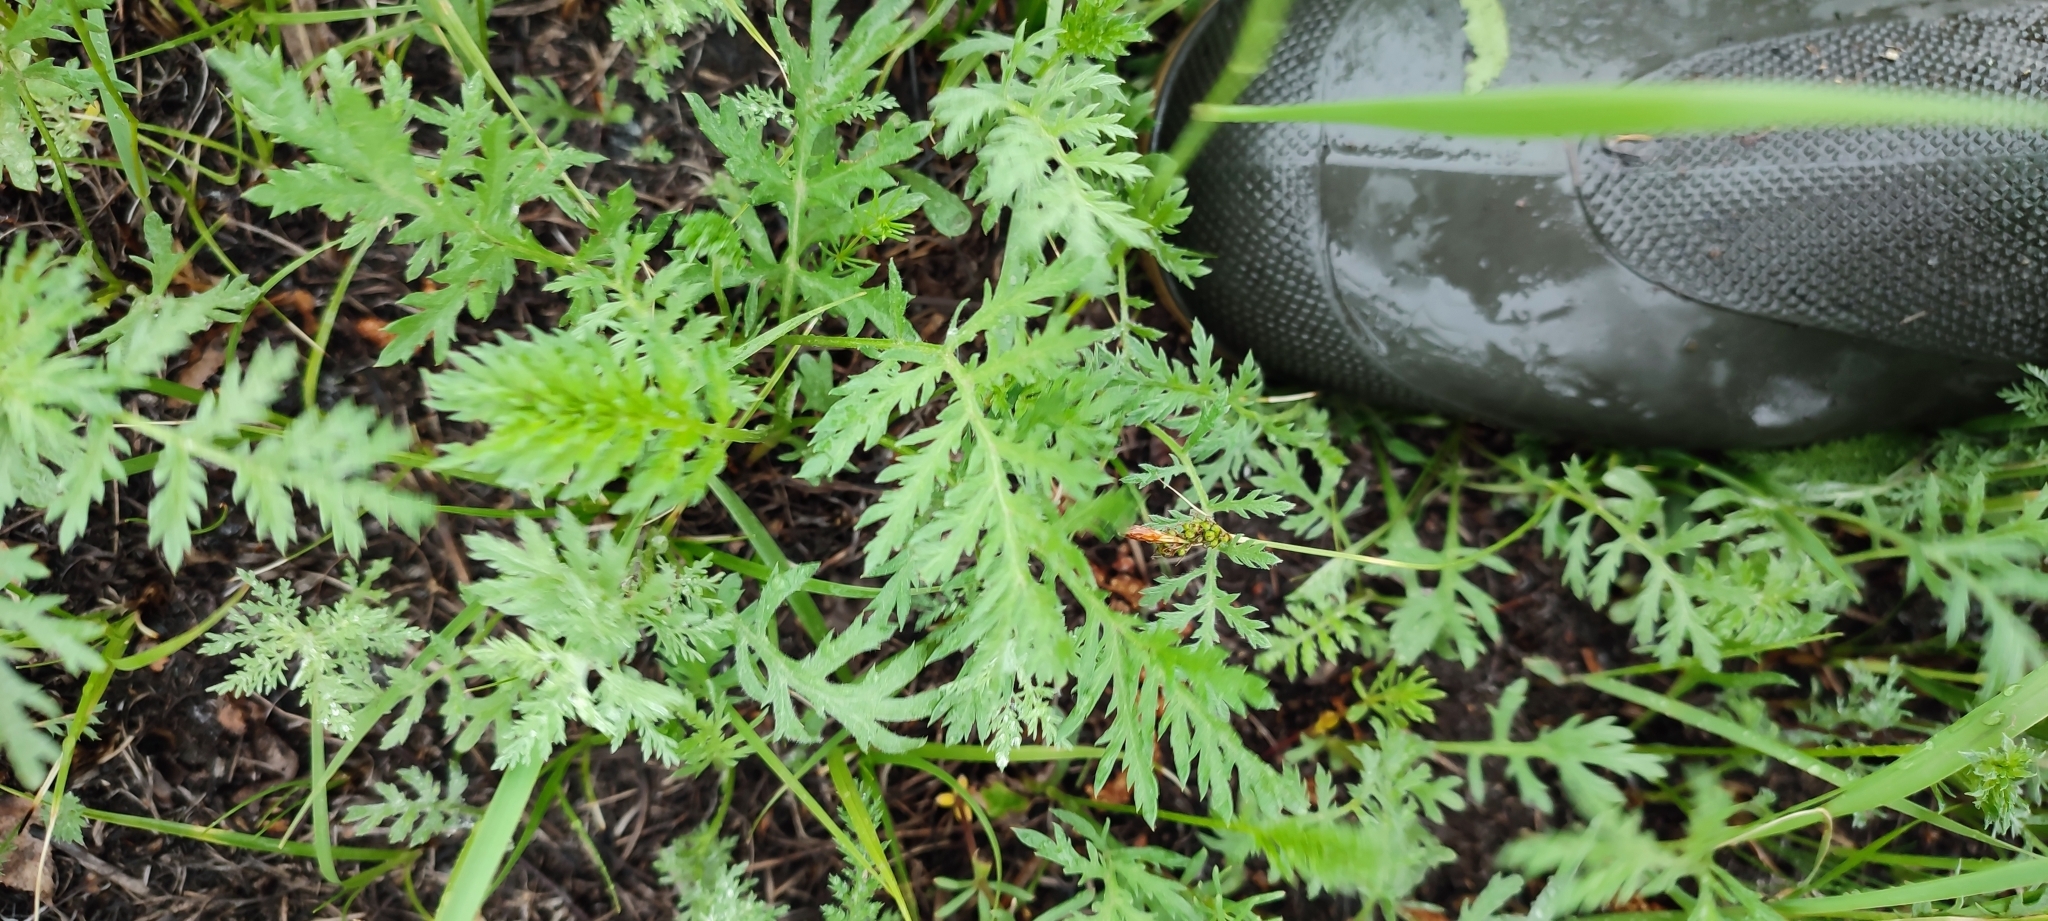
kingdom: Plantae
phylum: Tracheophyta
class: Magnoliopsida
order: Asterales
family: Asteraceae
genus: Tanacetum
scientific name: Tanacetum vulgare
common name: Common tansy
